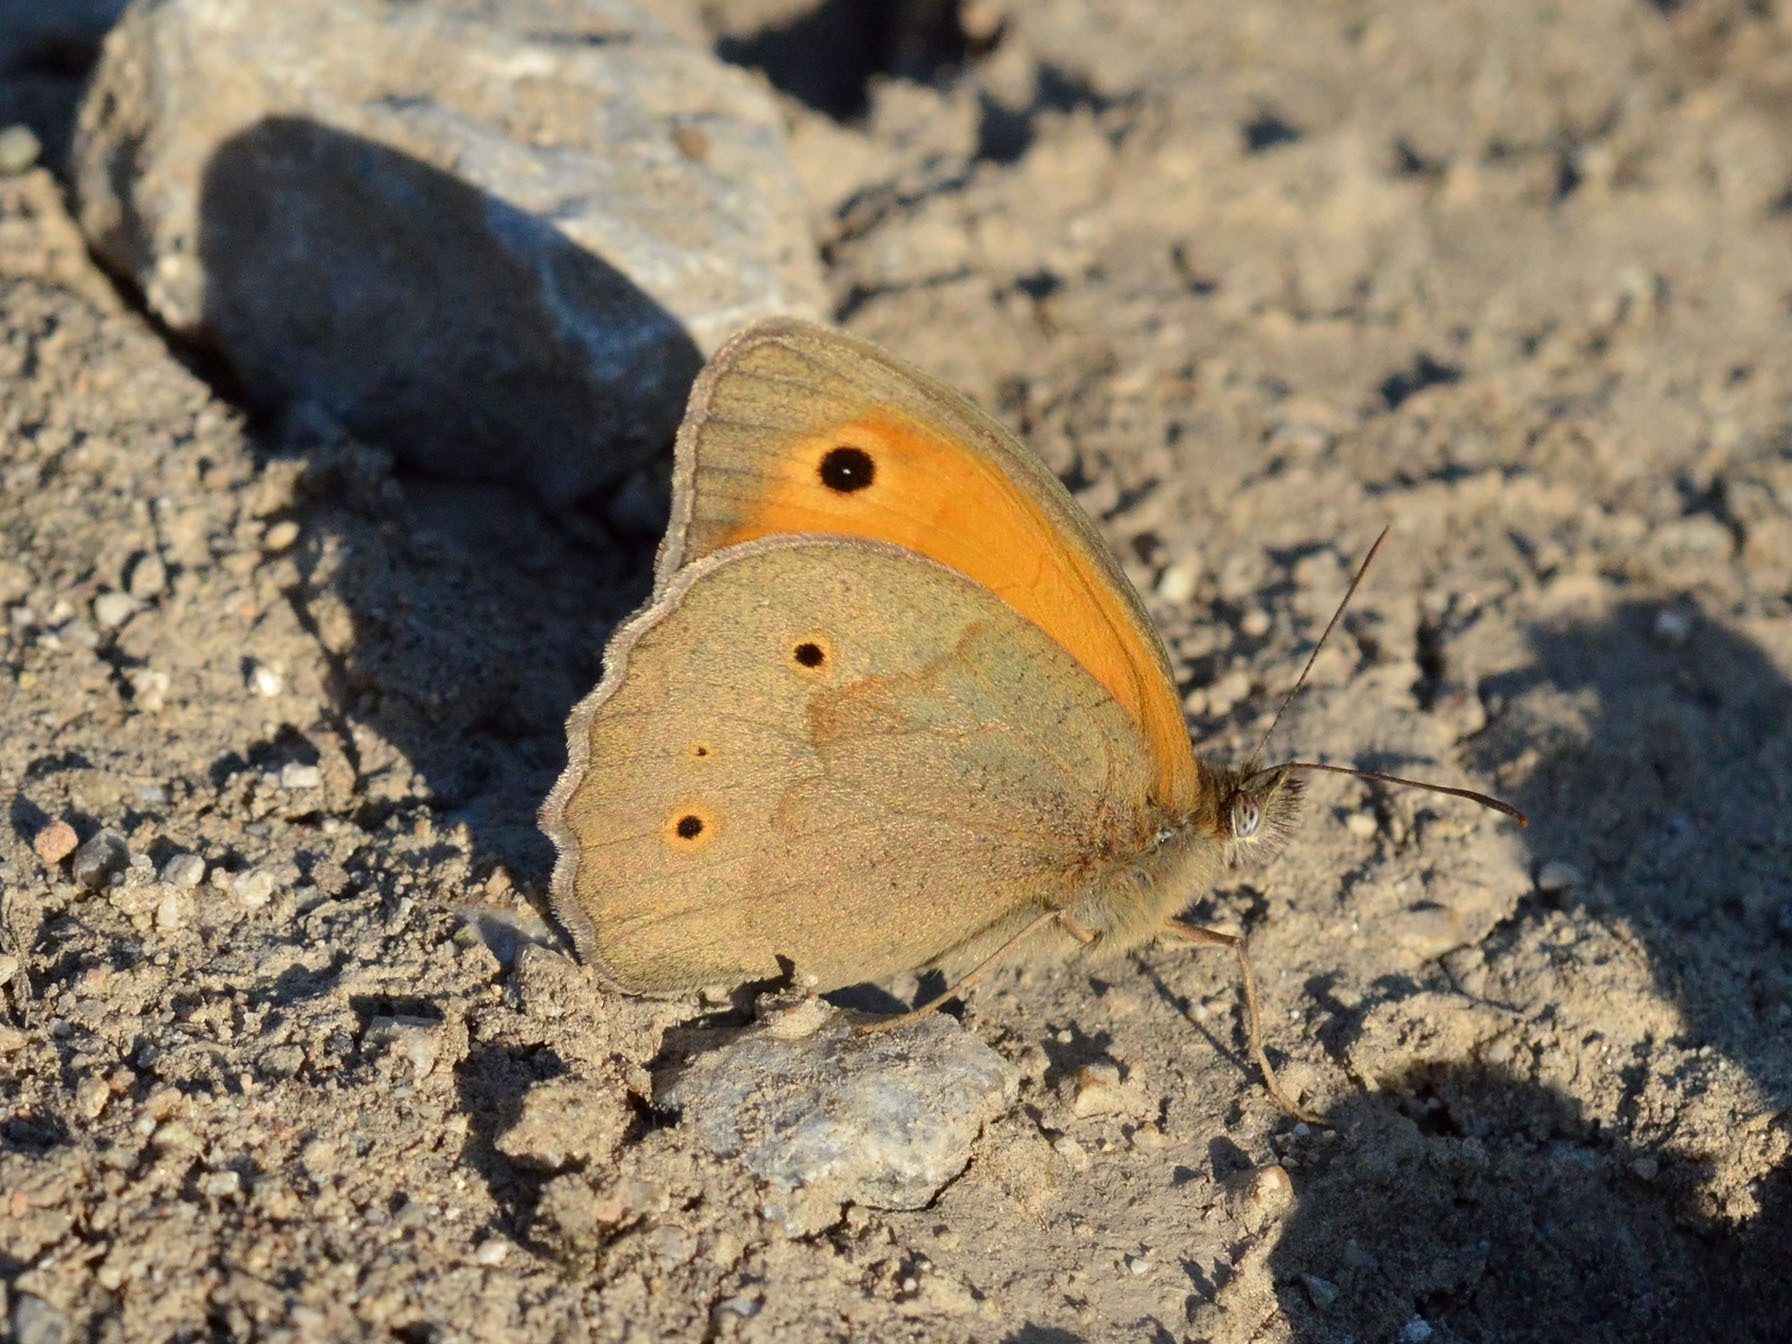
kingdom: Animalia
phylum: Arthropoda
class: Insecta
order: Lepidoptera
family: Nymphalidae
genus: Maniola
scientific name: Maniola jurtina
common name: Meadow brown
